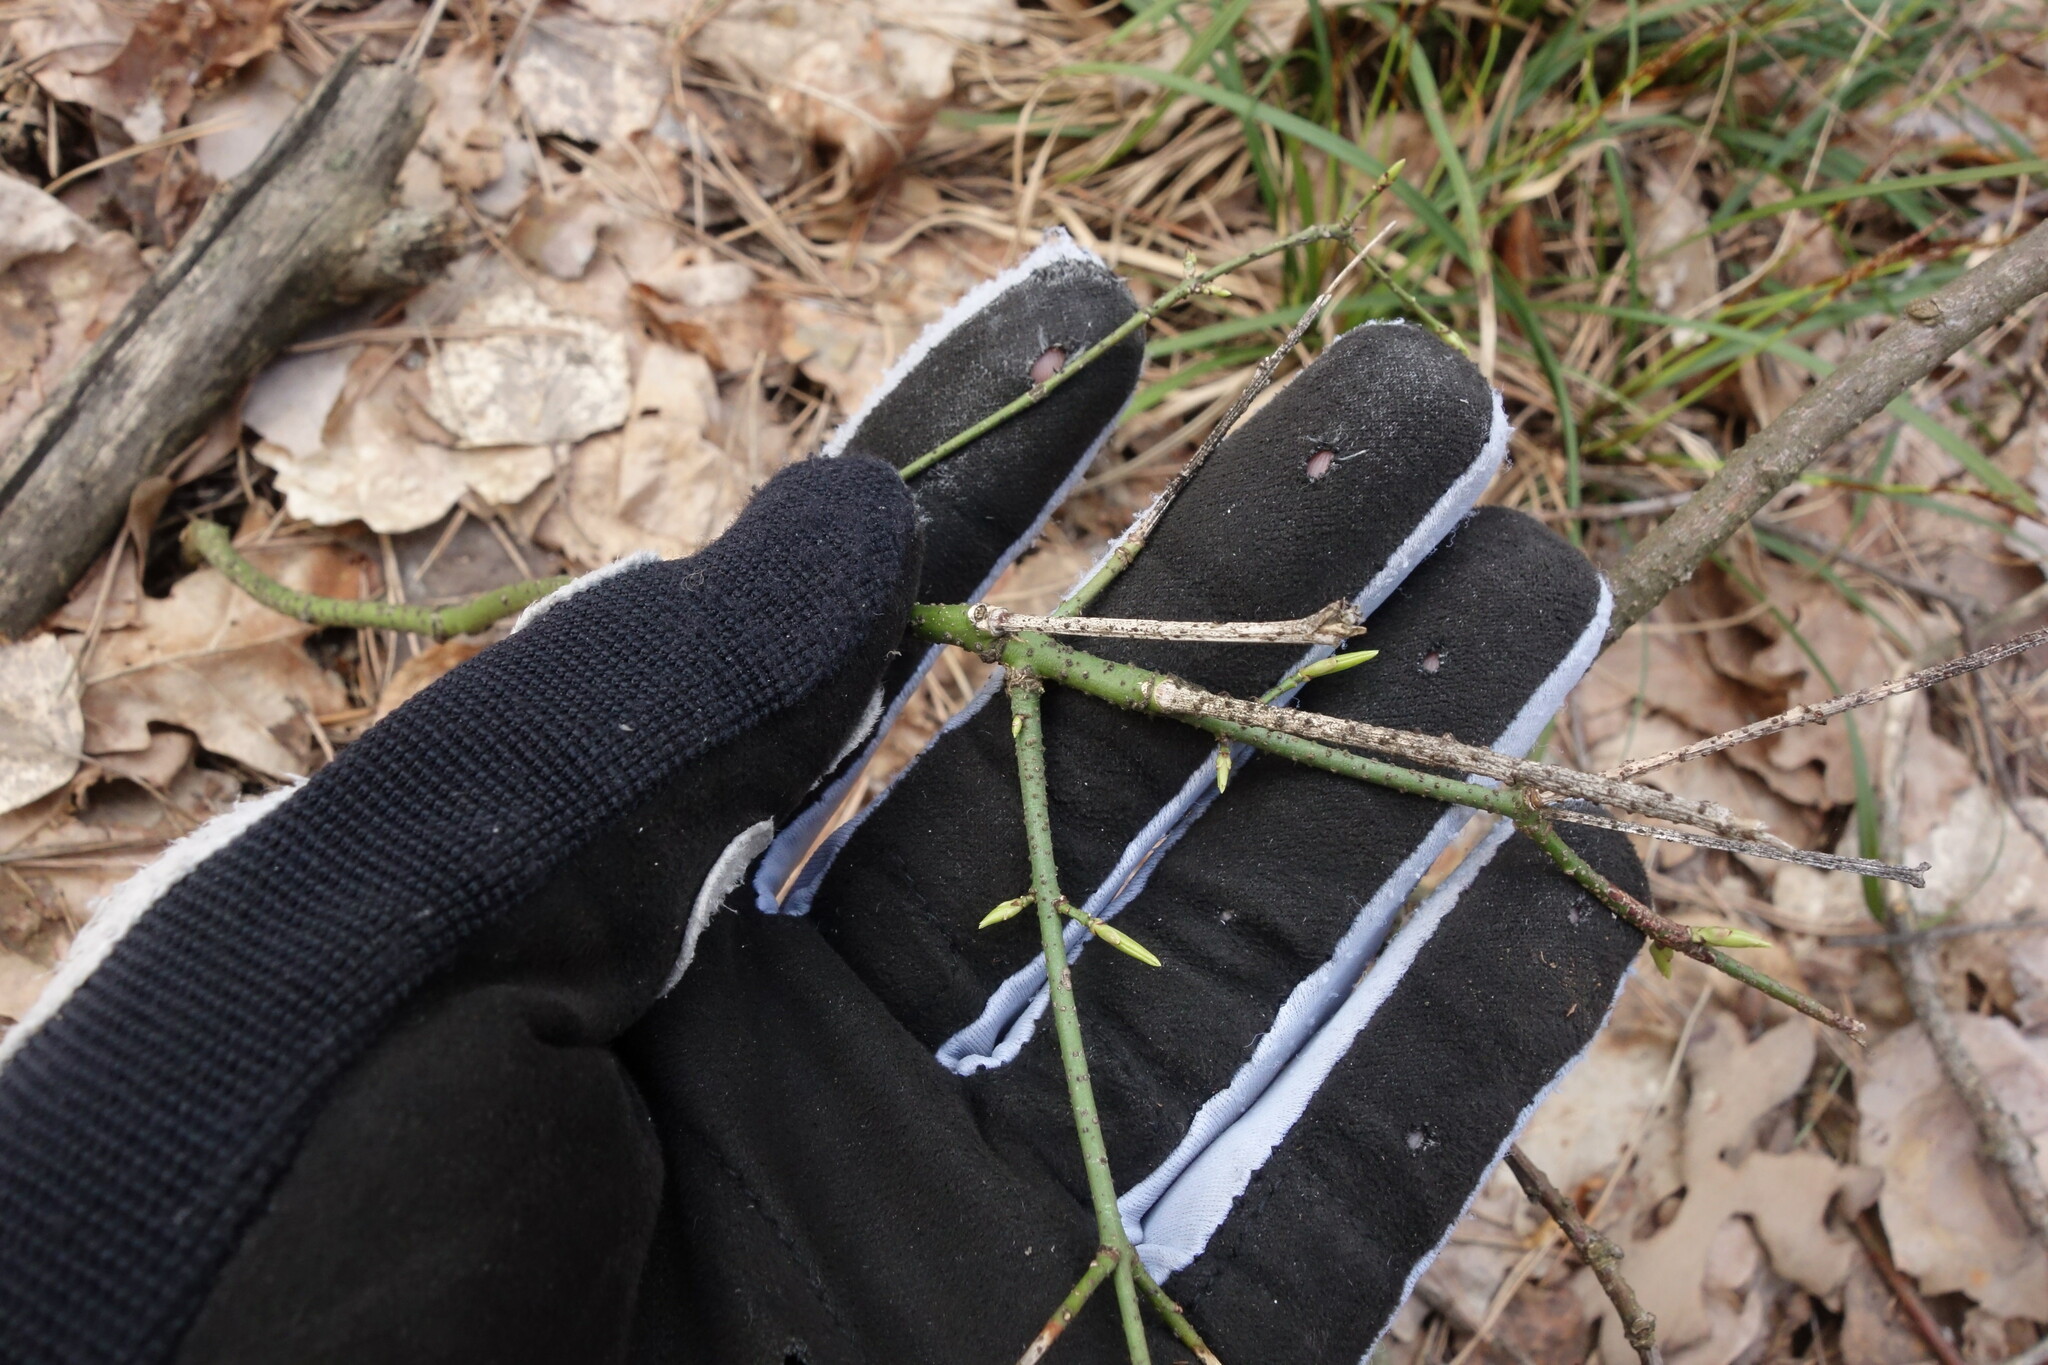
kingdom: Plantae
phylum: Tracheophyta
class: Magnoliopsida
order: Celastrales
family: Celastraceae
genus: Euonymus
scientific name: Euonymus verrucosus
